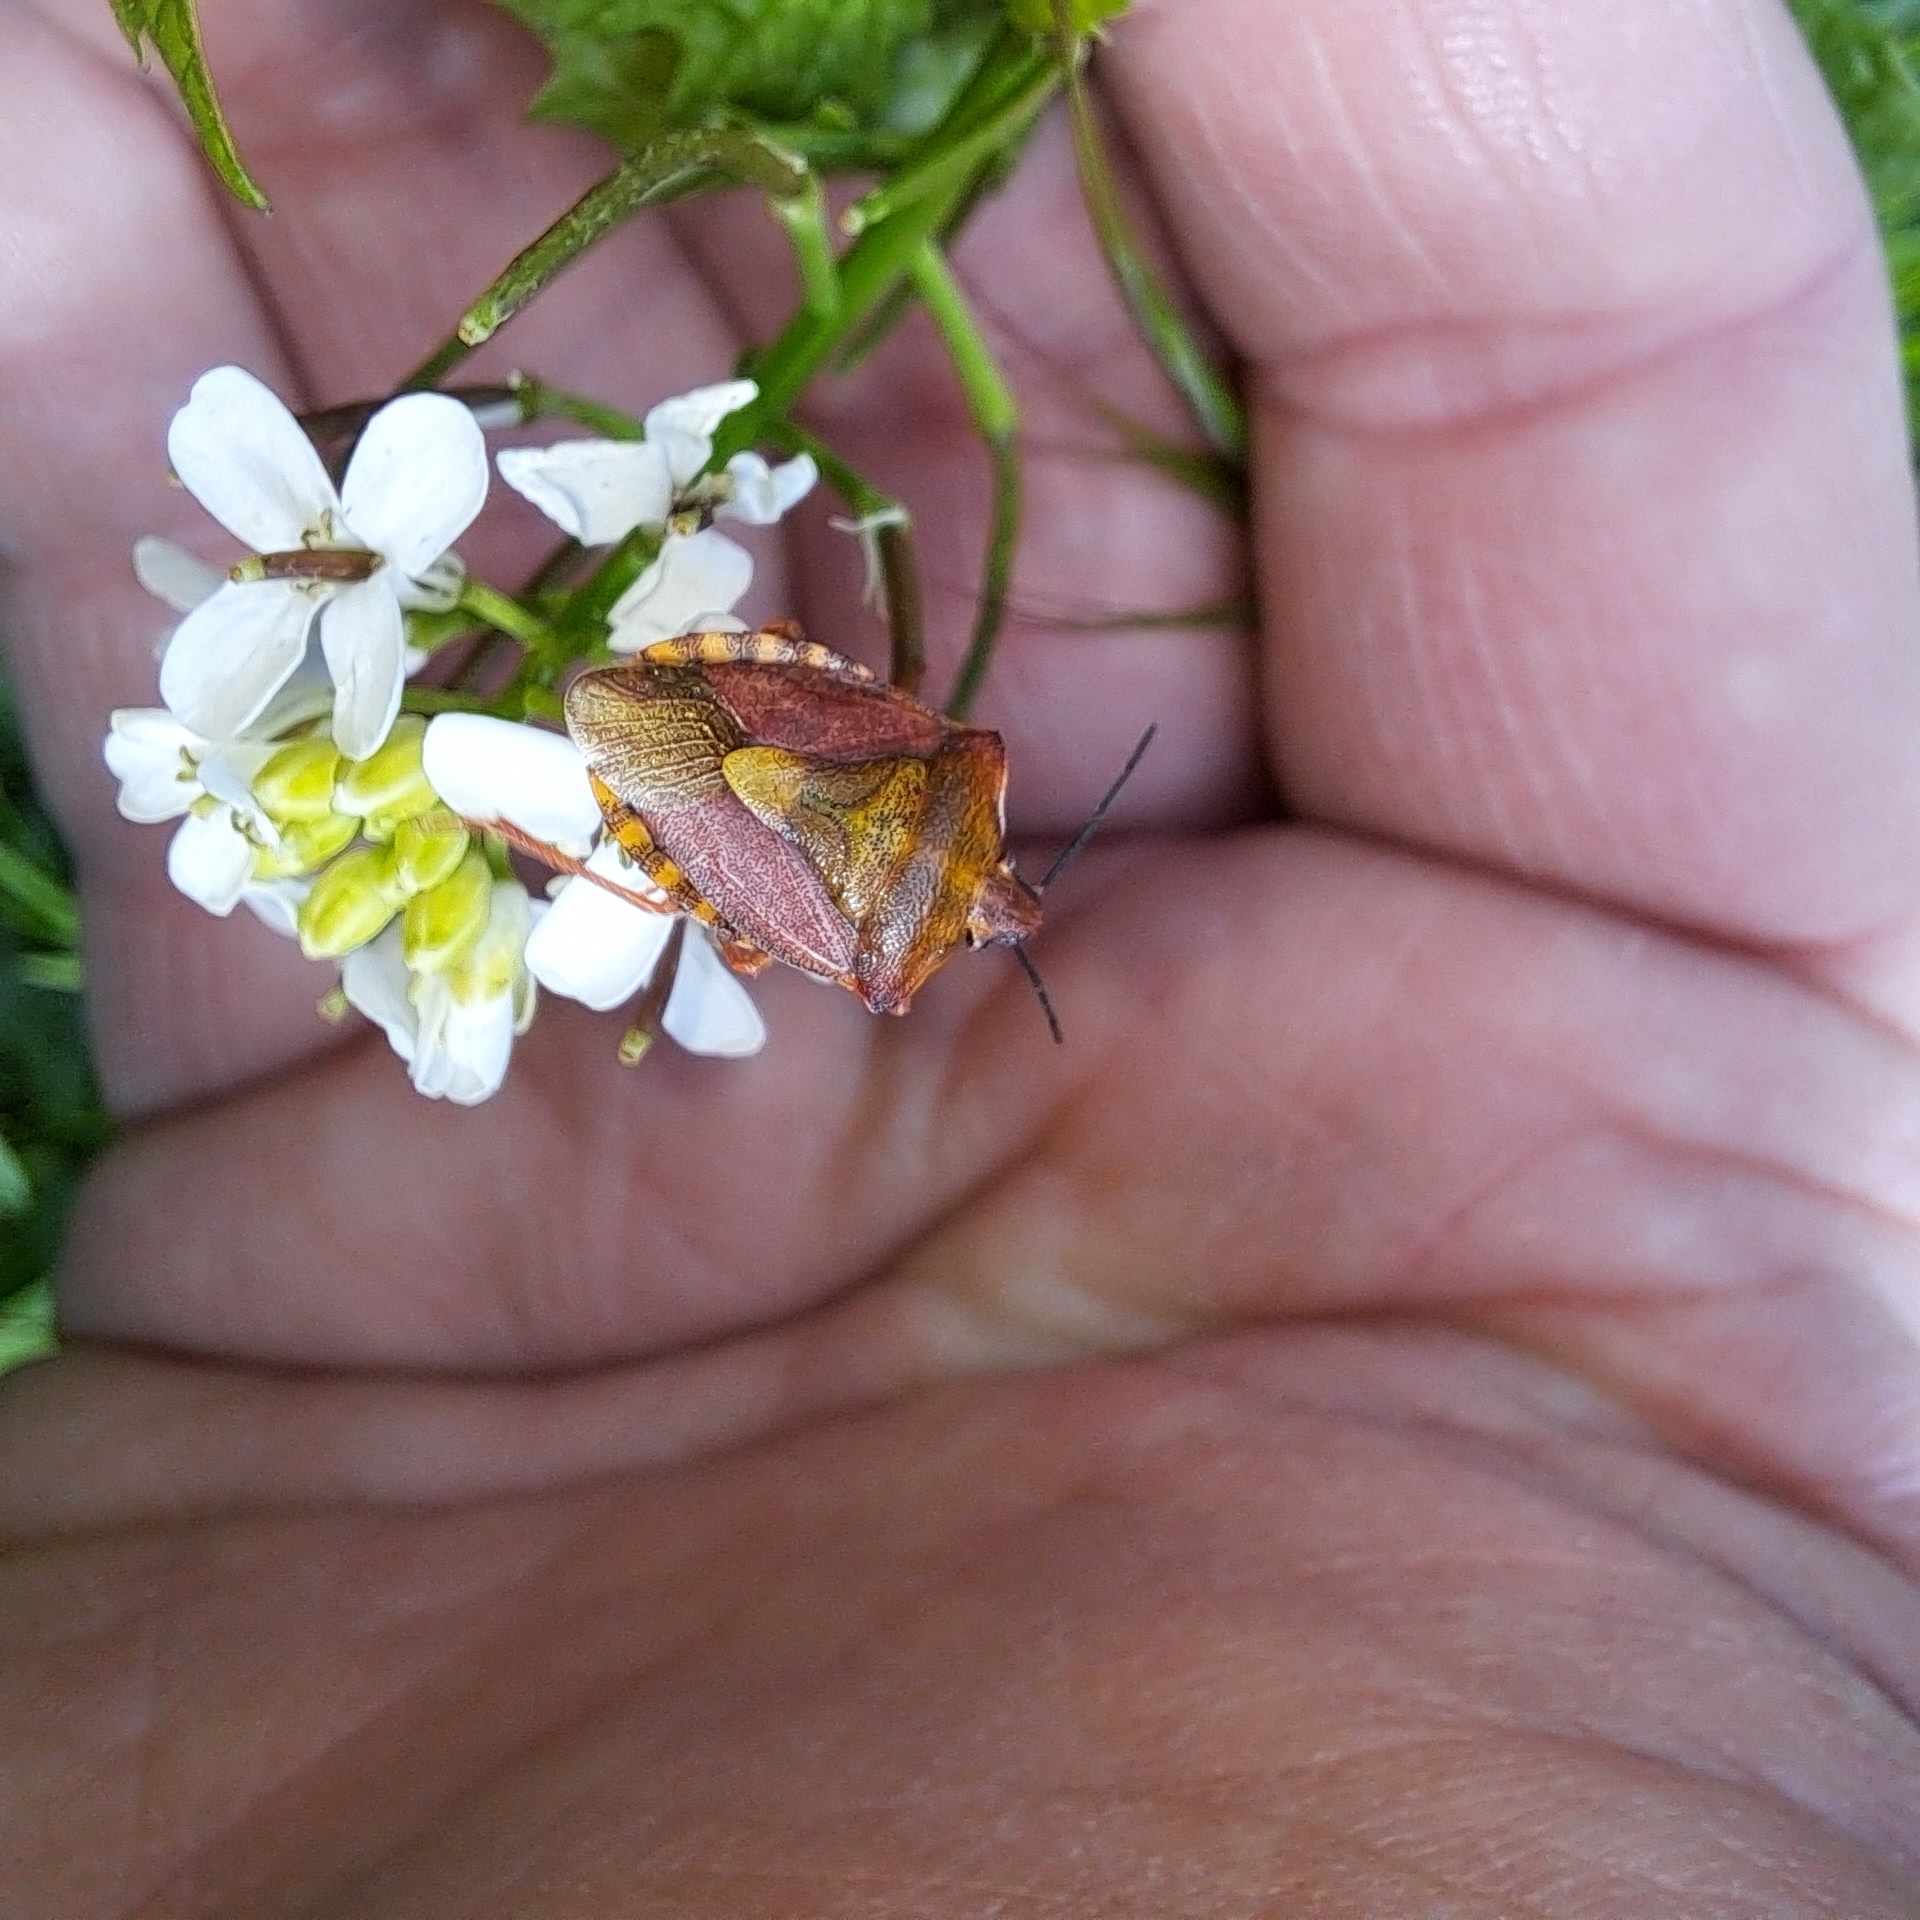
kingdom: Animalia
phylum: Arthropoda
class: Insecta
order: Hemiptera
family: Pentatomidae
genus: Carpocoris
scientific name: Carpocoris purpureipennis
